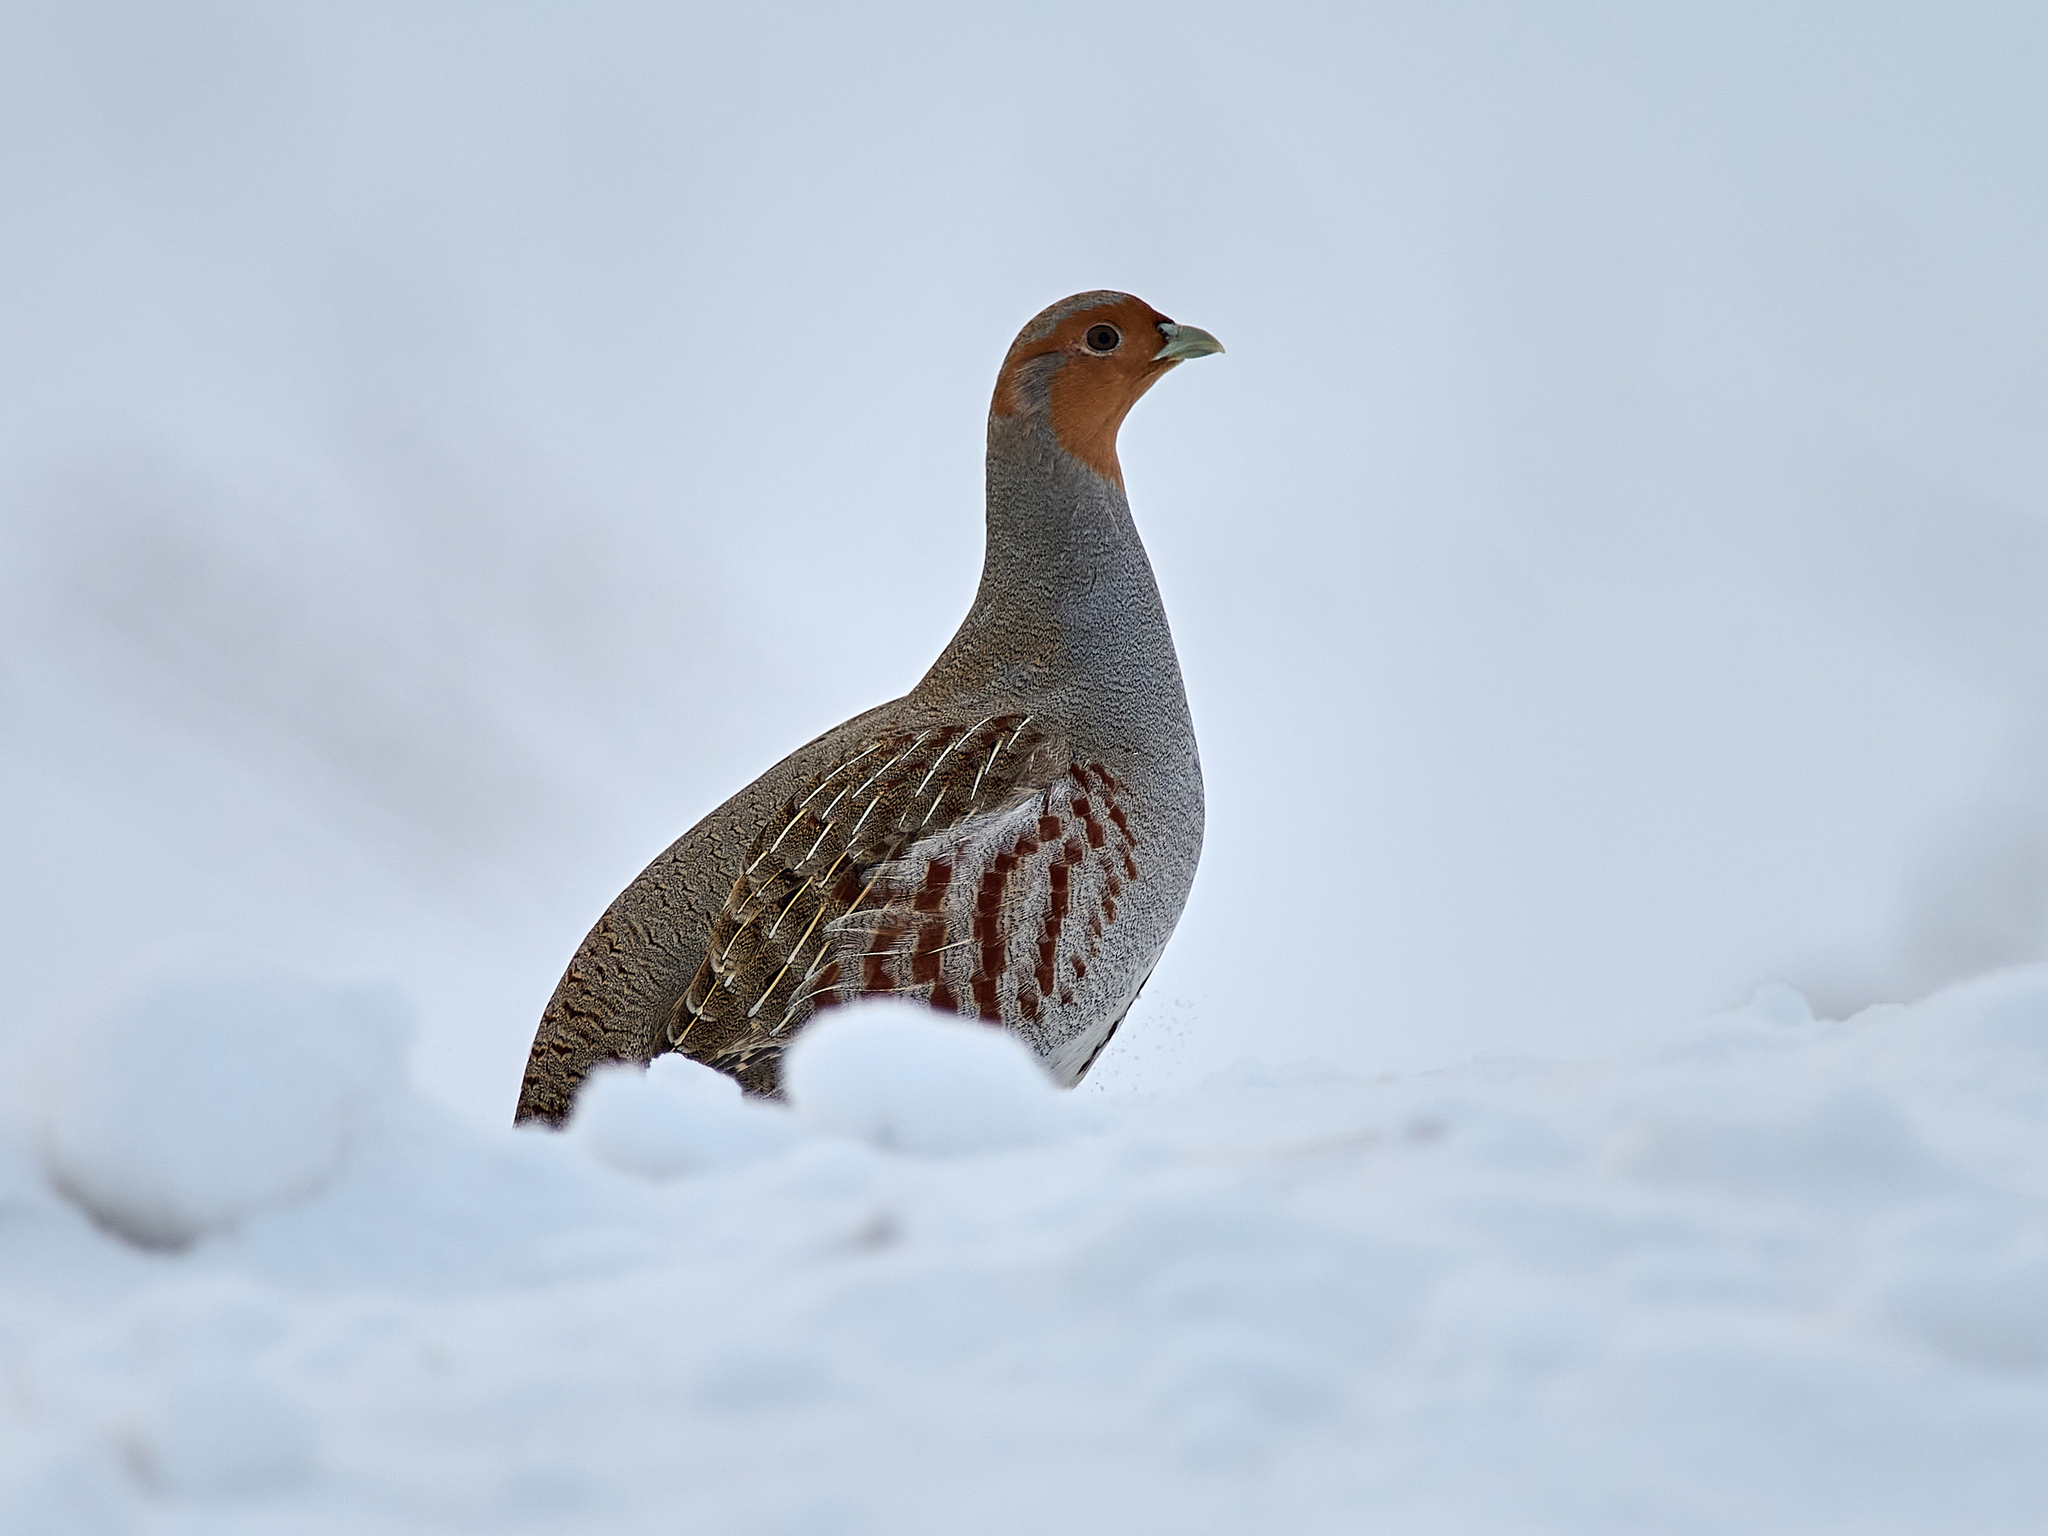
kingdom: Animalia
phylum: Chordata
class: Aves
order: Galliformes
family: Phasianidae
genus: Perdix
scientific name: Perdix perdix
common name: Grey partridge
